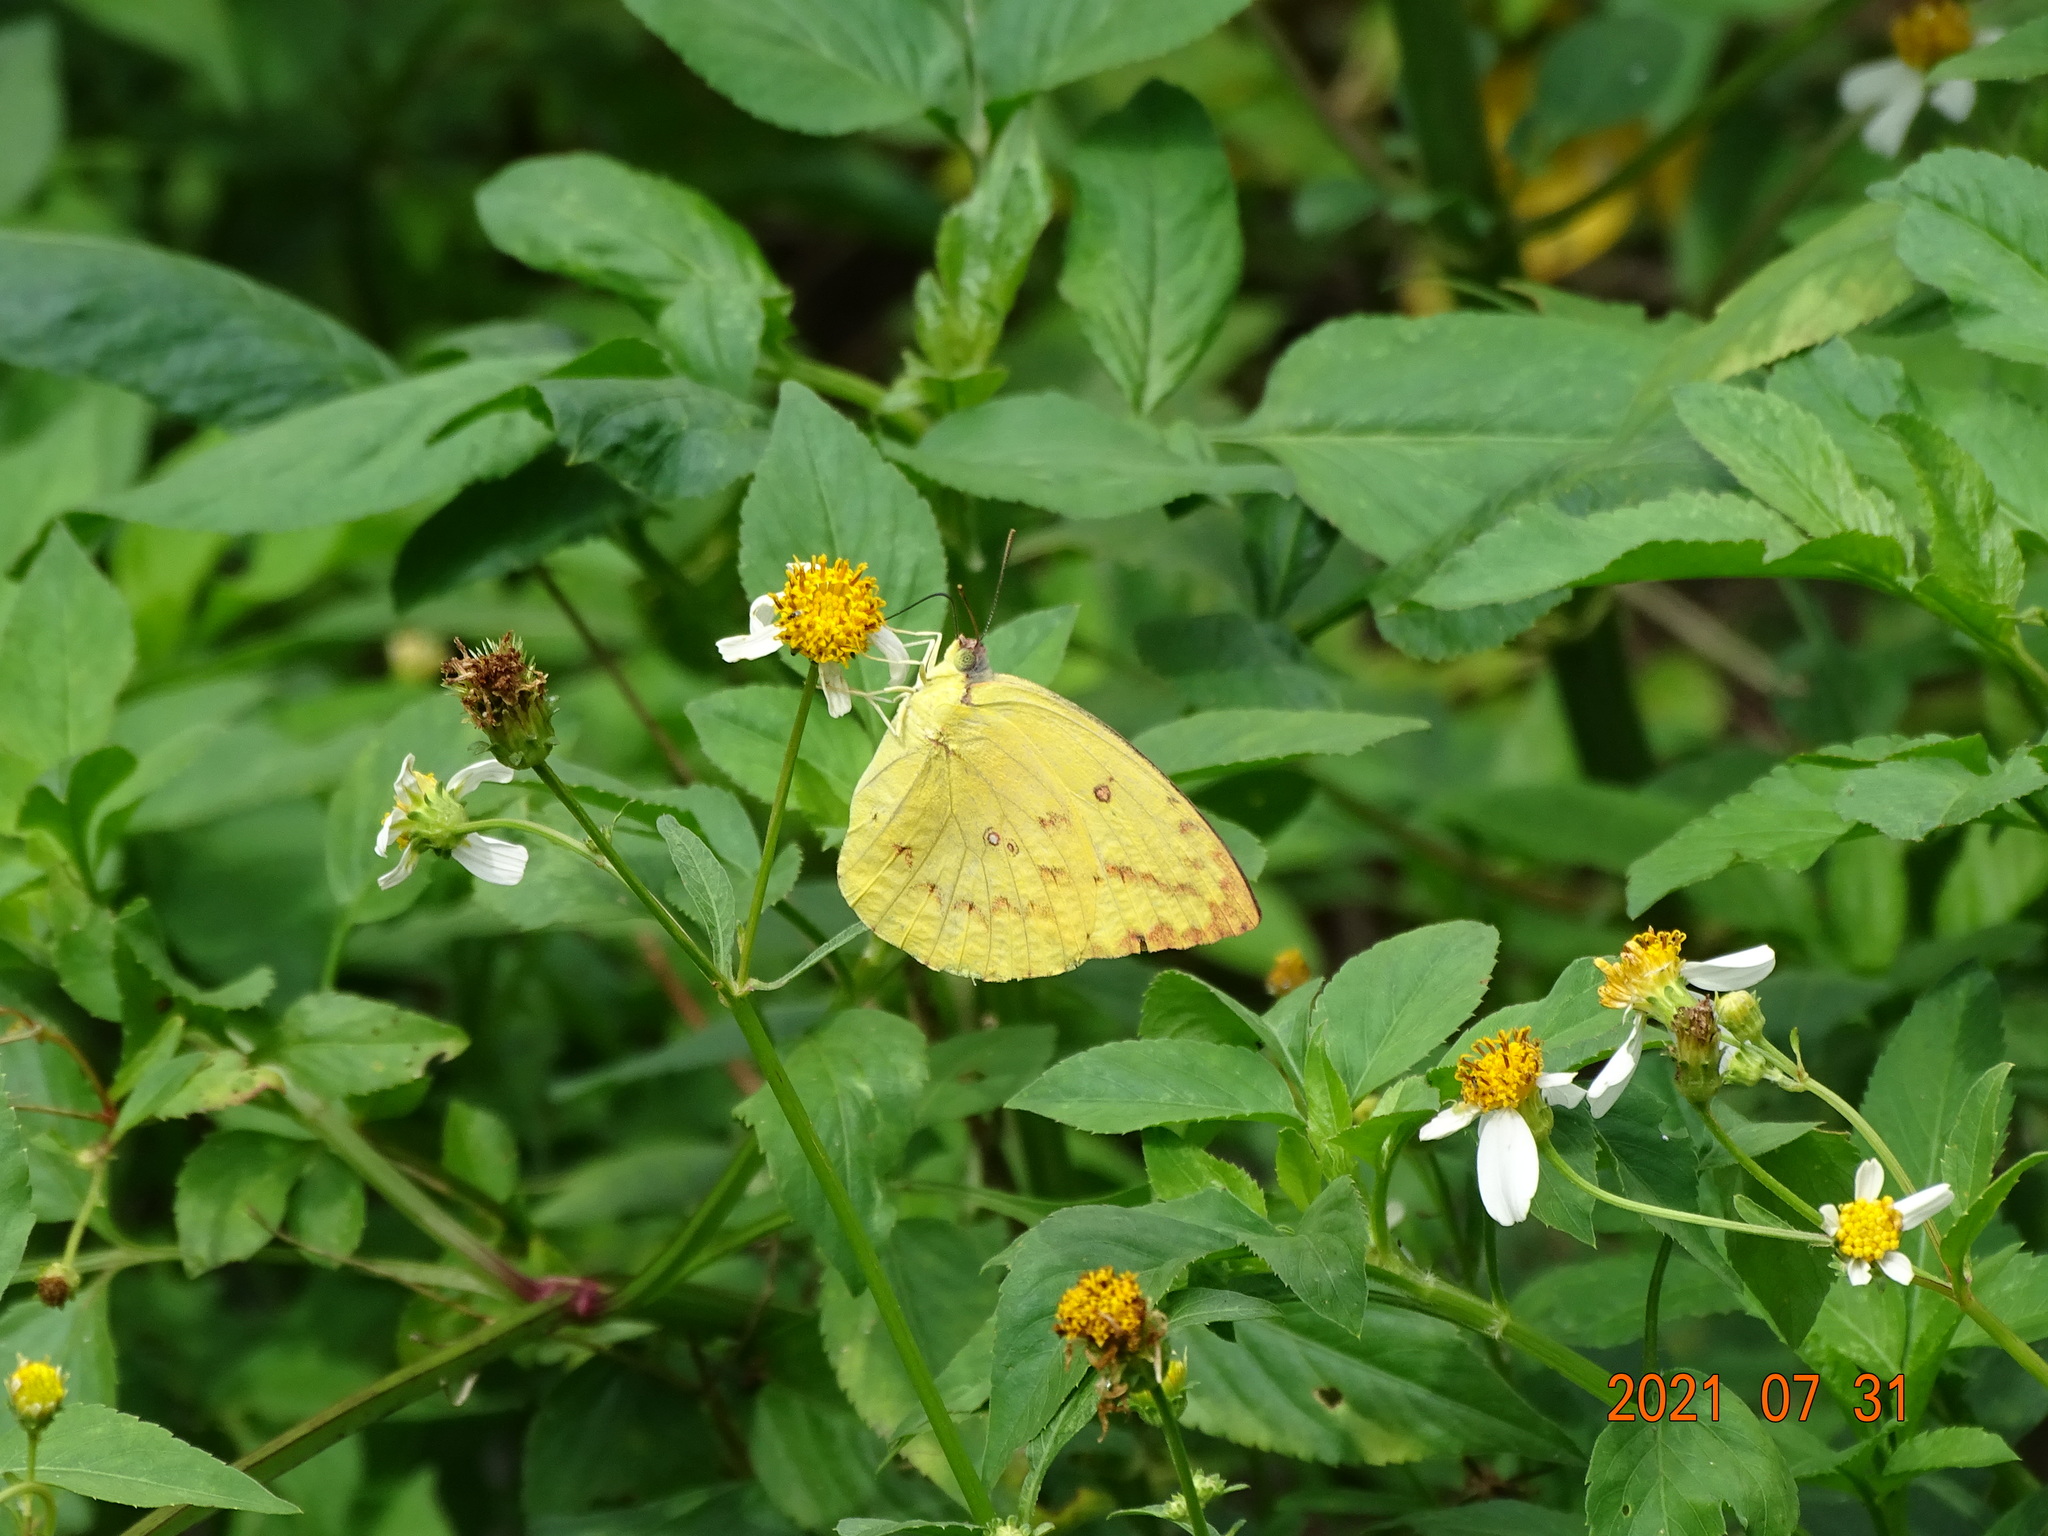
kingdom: Animalia
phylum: Arthropoda
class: Insecta
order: Lepidoptera
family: Pieridae
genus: Catopsilia
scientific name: Catopsilia pomona
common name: Common emigrant
